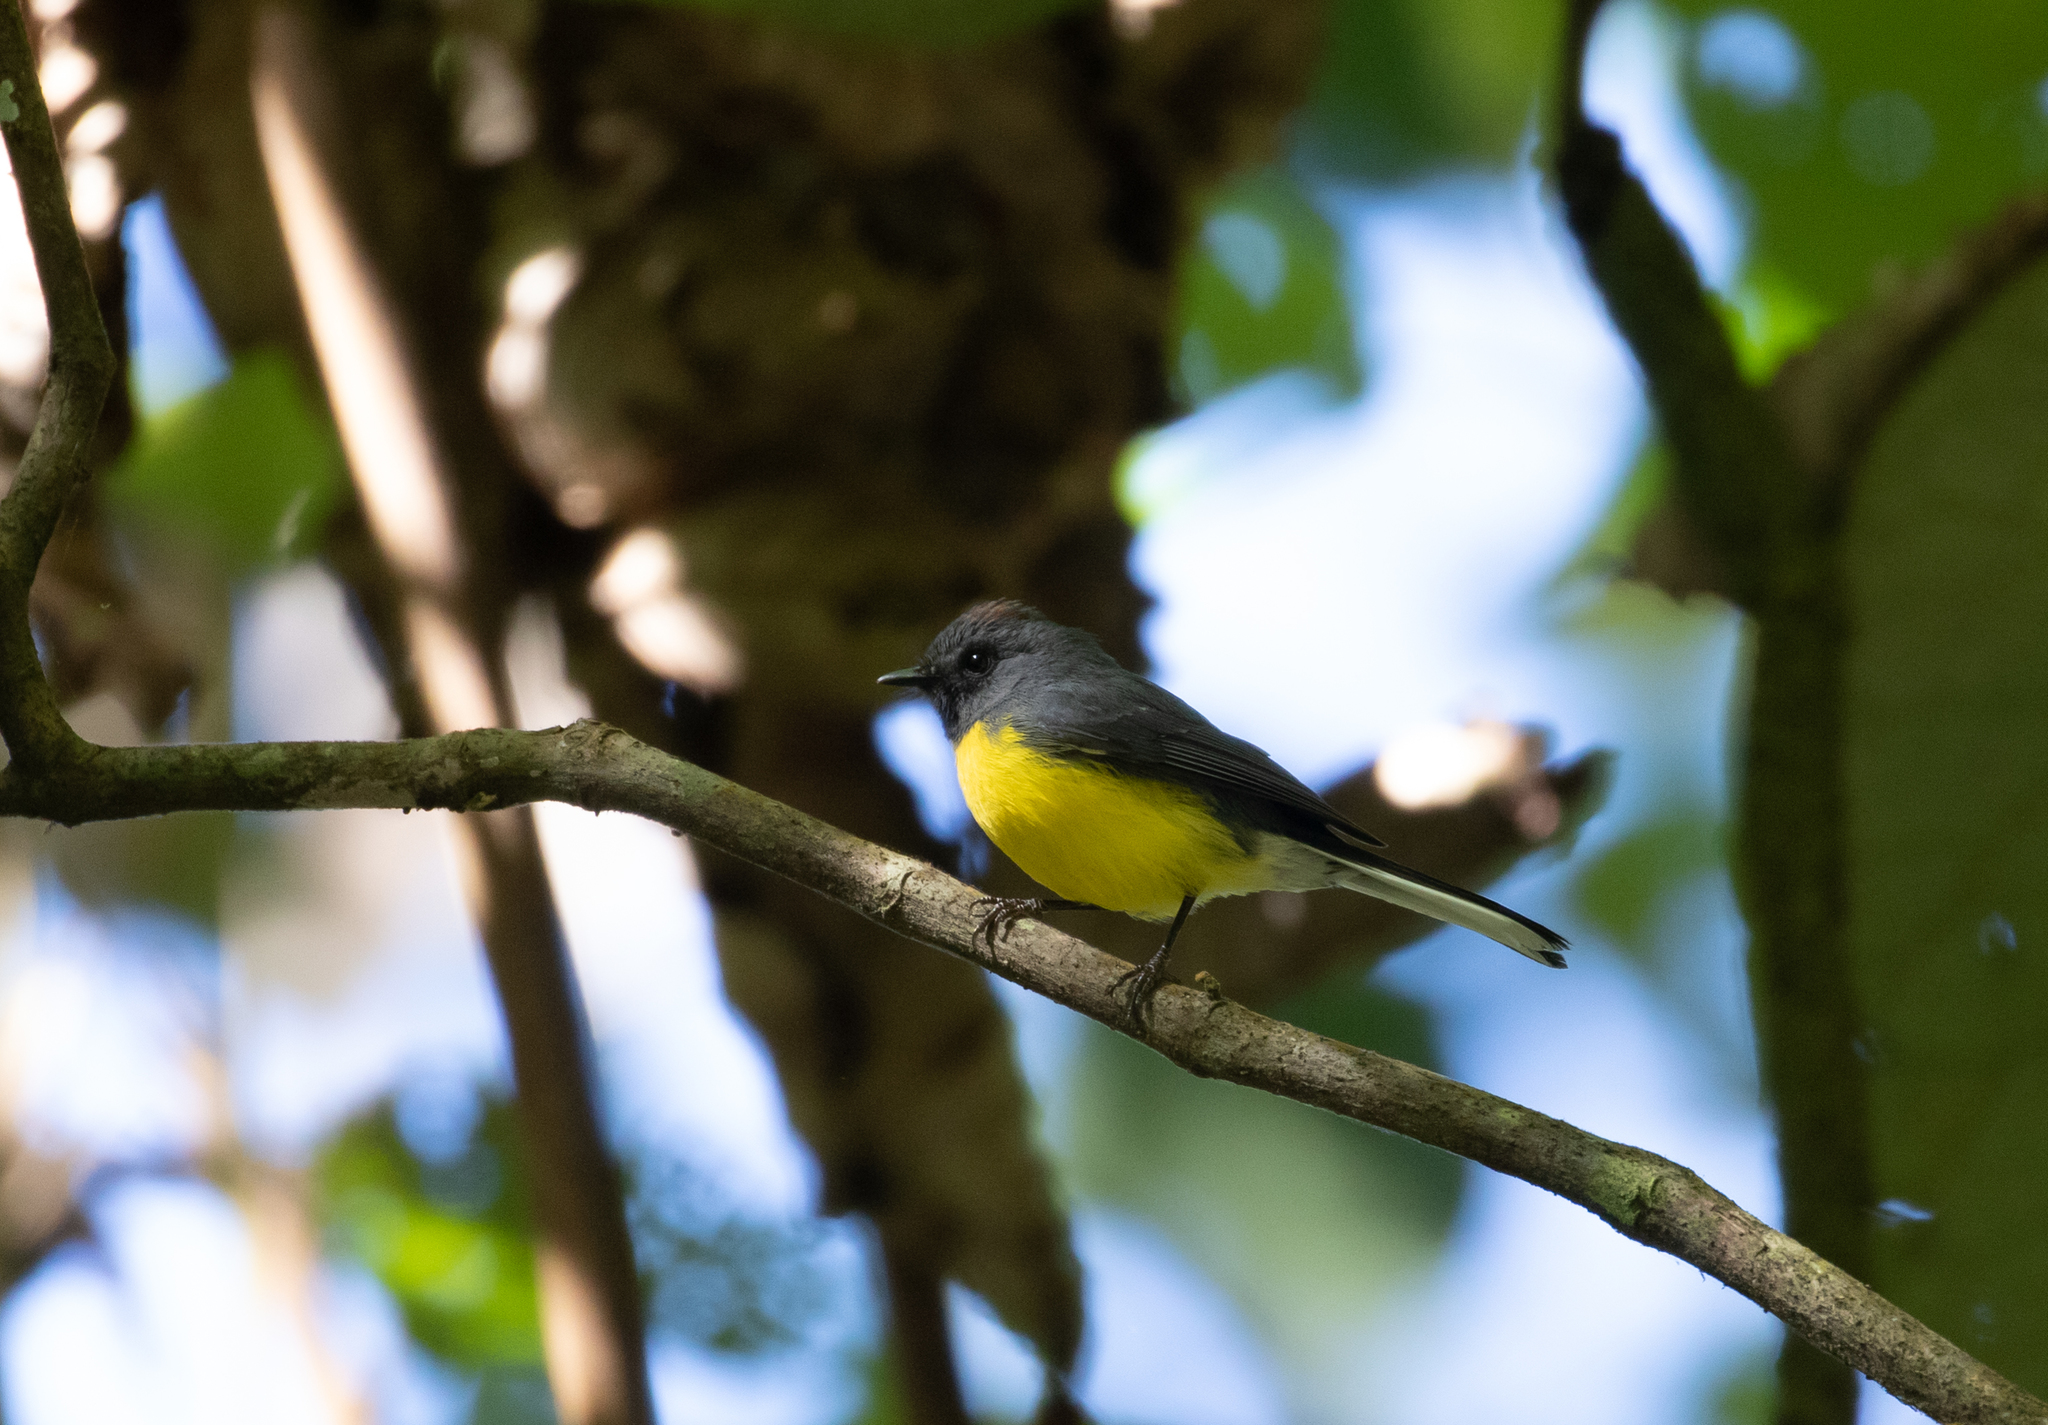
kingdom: Animalia
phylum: Chordata
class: Aves
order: Passeriformes
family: Parulidae
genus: Myioborus
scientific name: Myioborus miniatus
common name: Slate-throated redstart
